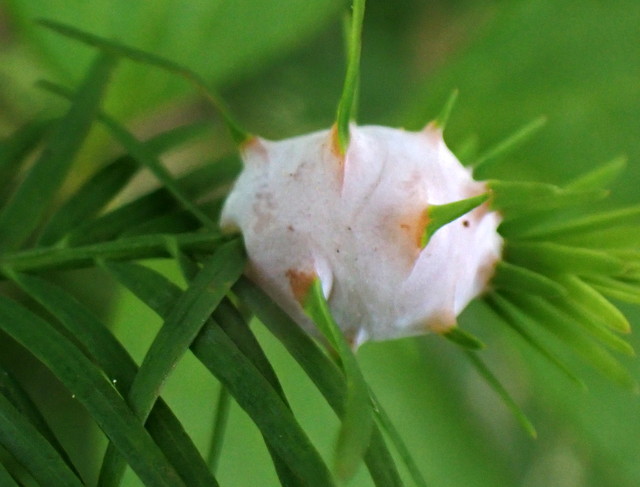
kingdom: Animalia
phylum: Arthropoda
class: Insecta
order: Diptera
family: Cecidomyiidae
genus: Taxodiomyia
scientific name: Taxodiomyia cupressiananassa
